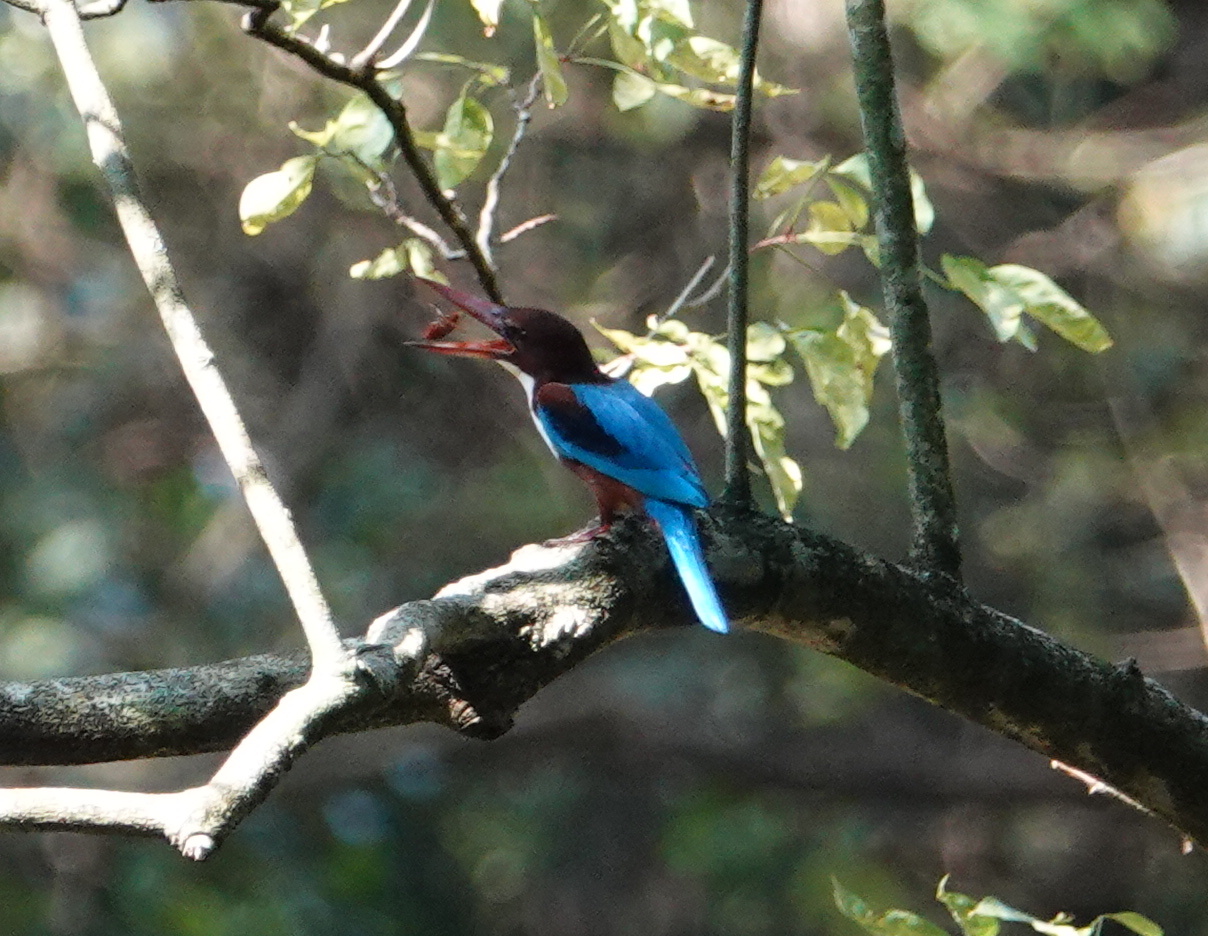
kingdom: Animalia
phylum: Chordata
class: Aves
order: Coraciiformes
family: Alcedinidae
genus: Halcyon
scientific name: Halcyon smyrnensis
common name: White-throated kingfisher
